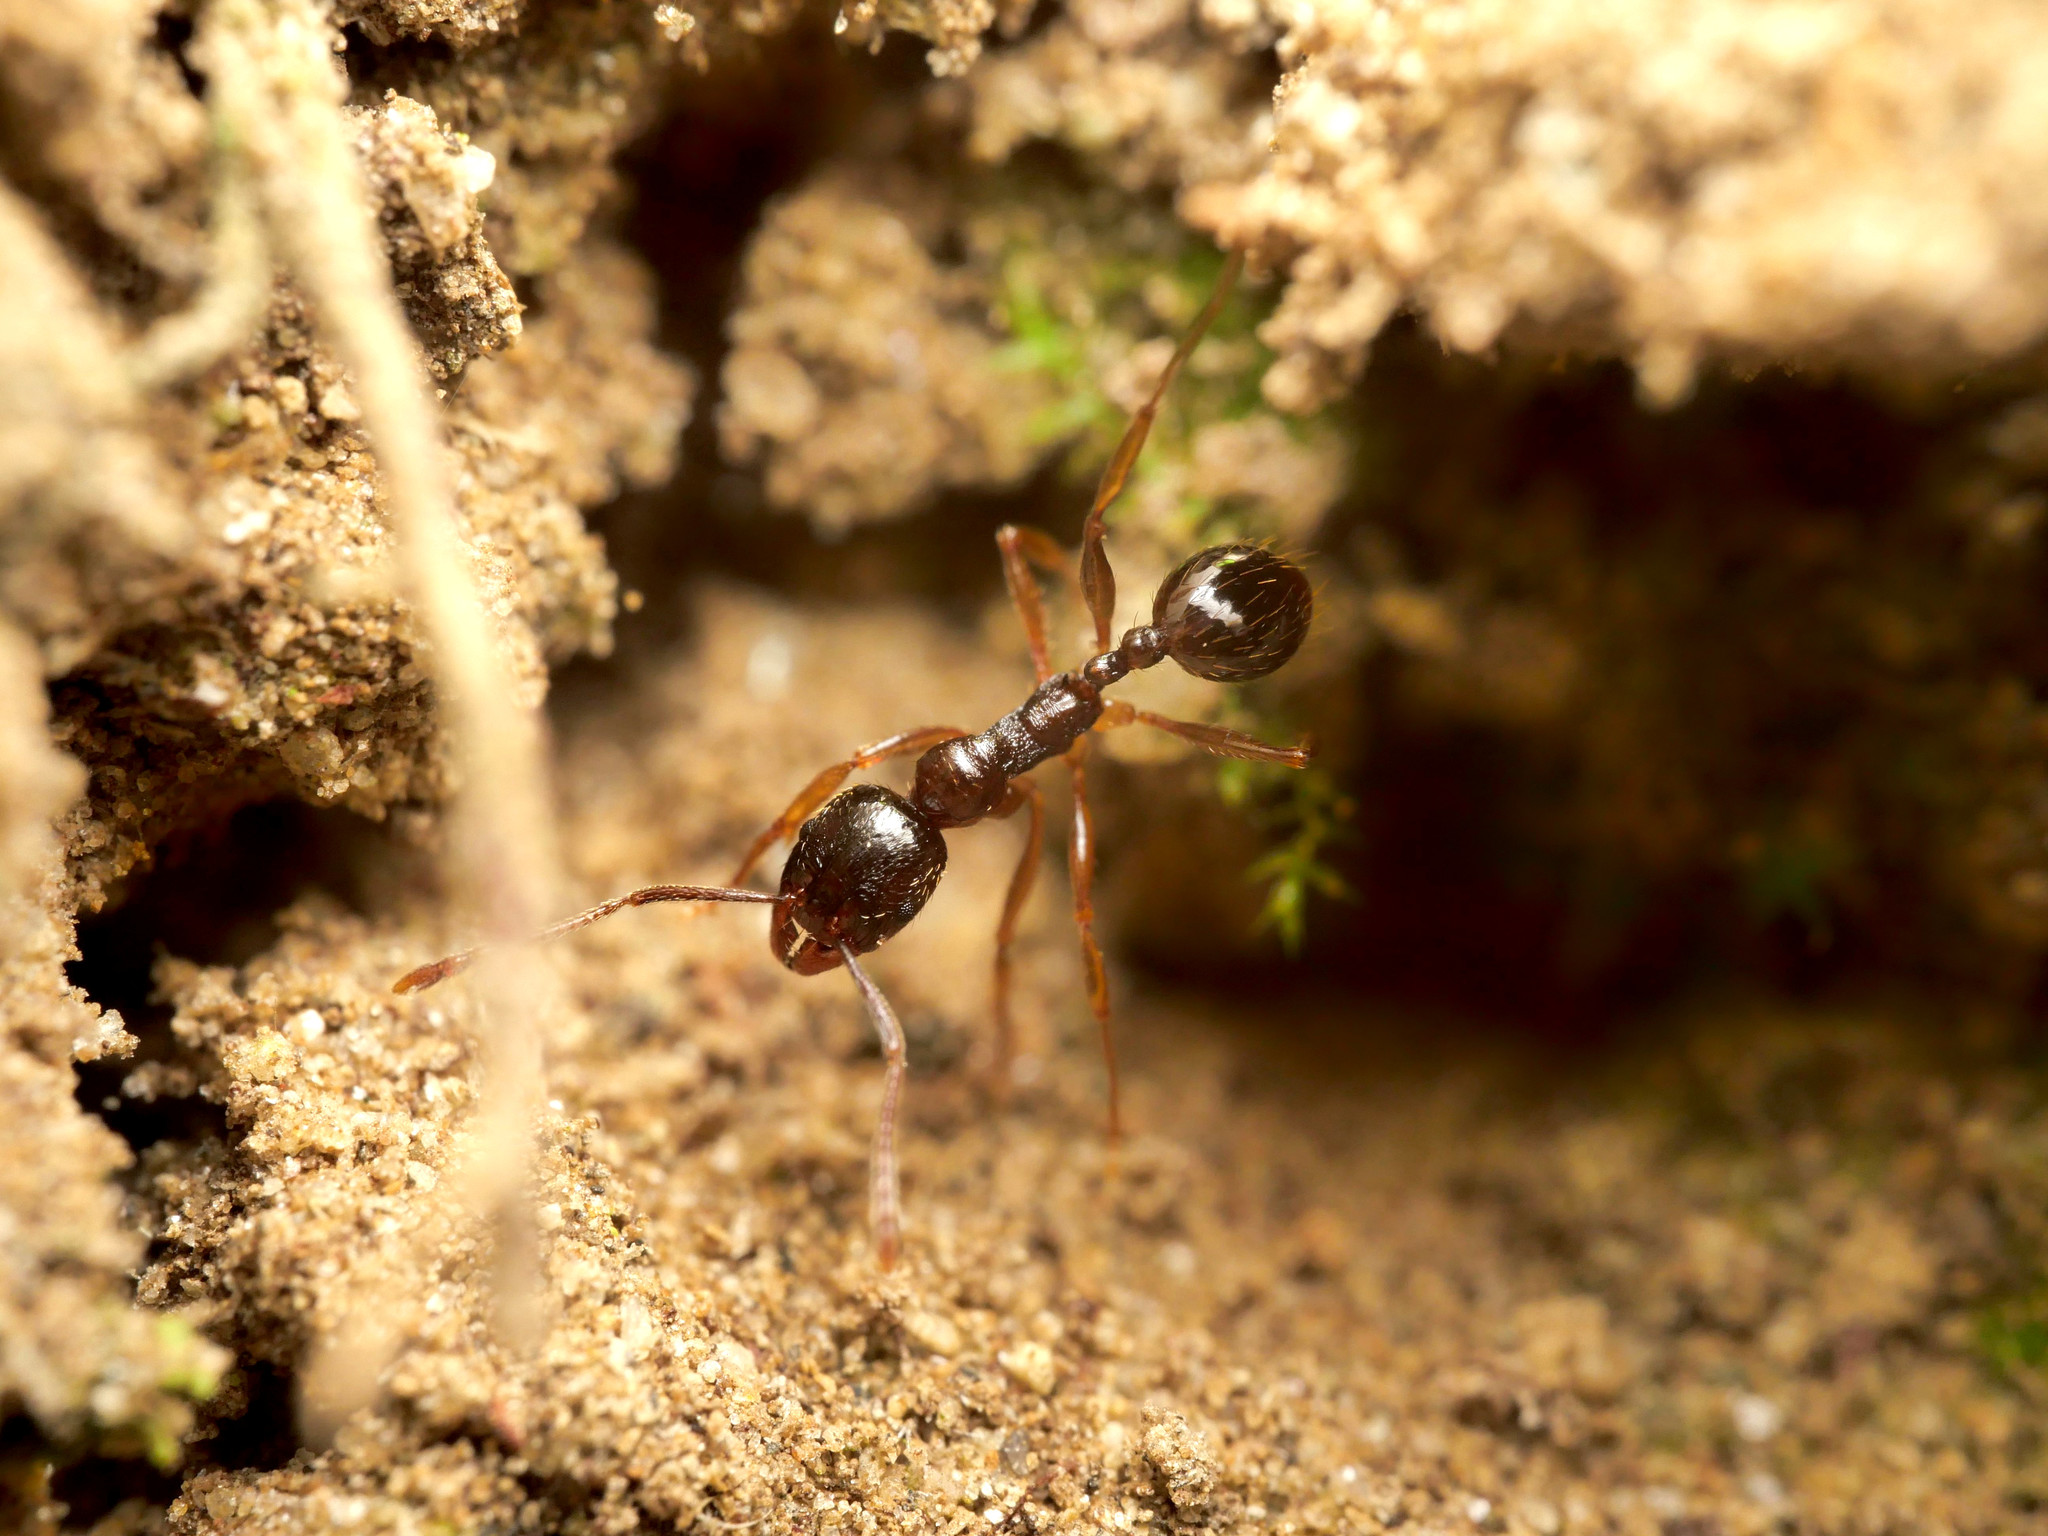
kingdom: Animalia
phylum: Arthropoda
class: Insecta
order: Hymenoptera
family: Formicidae
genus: Aphaenogaster
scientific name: Aphaenogaster subterranea
